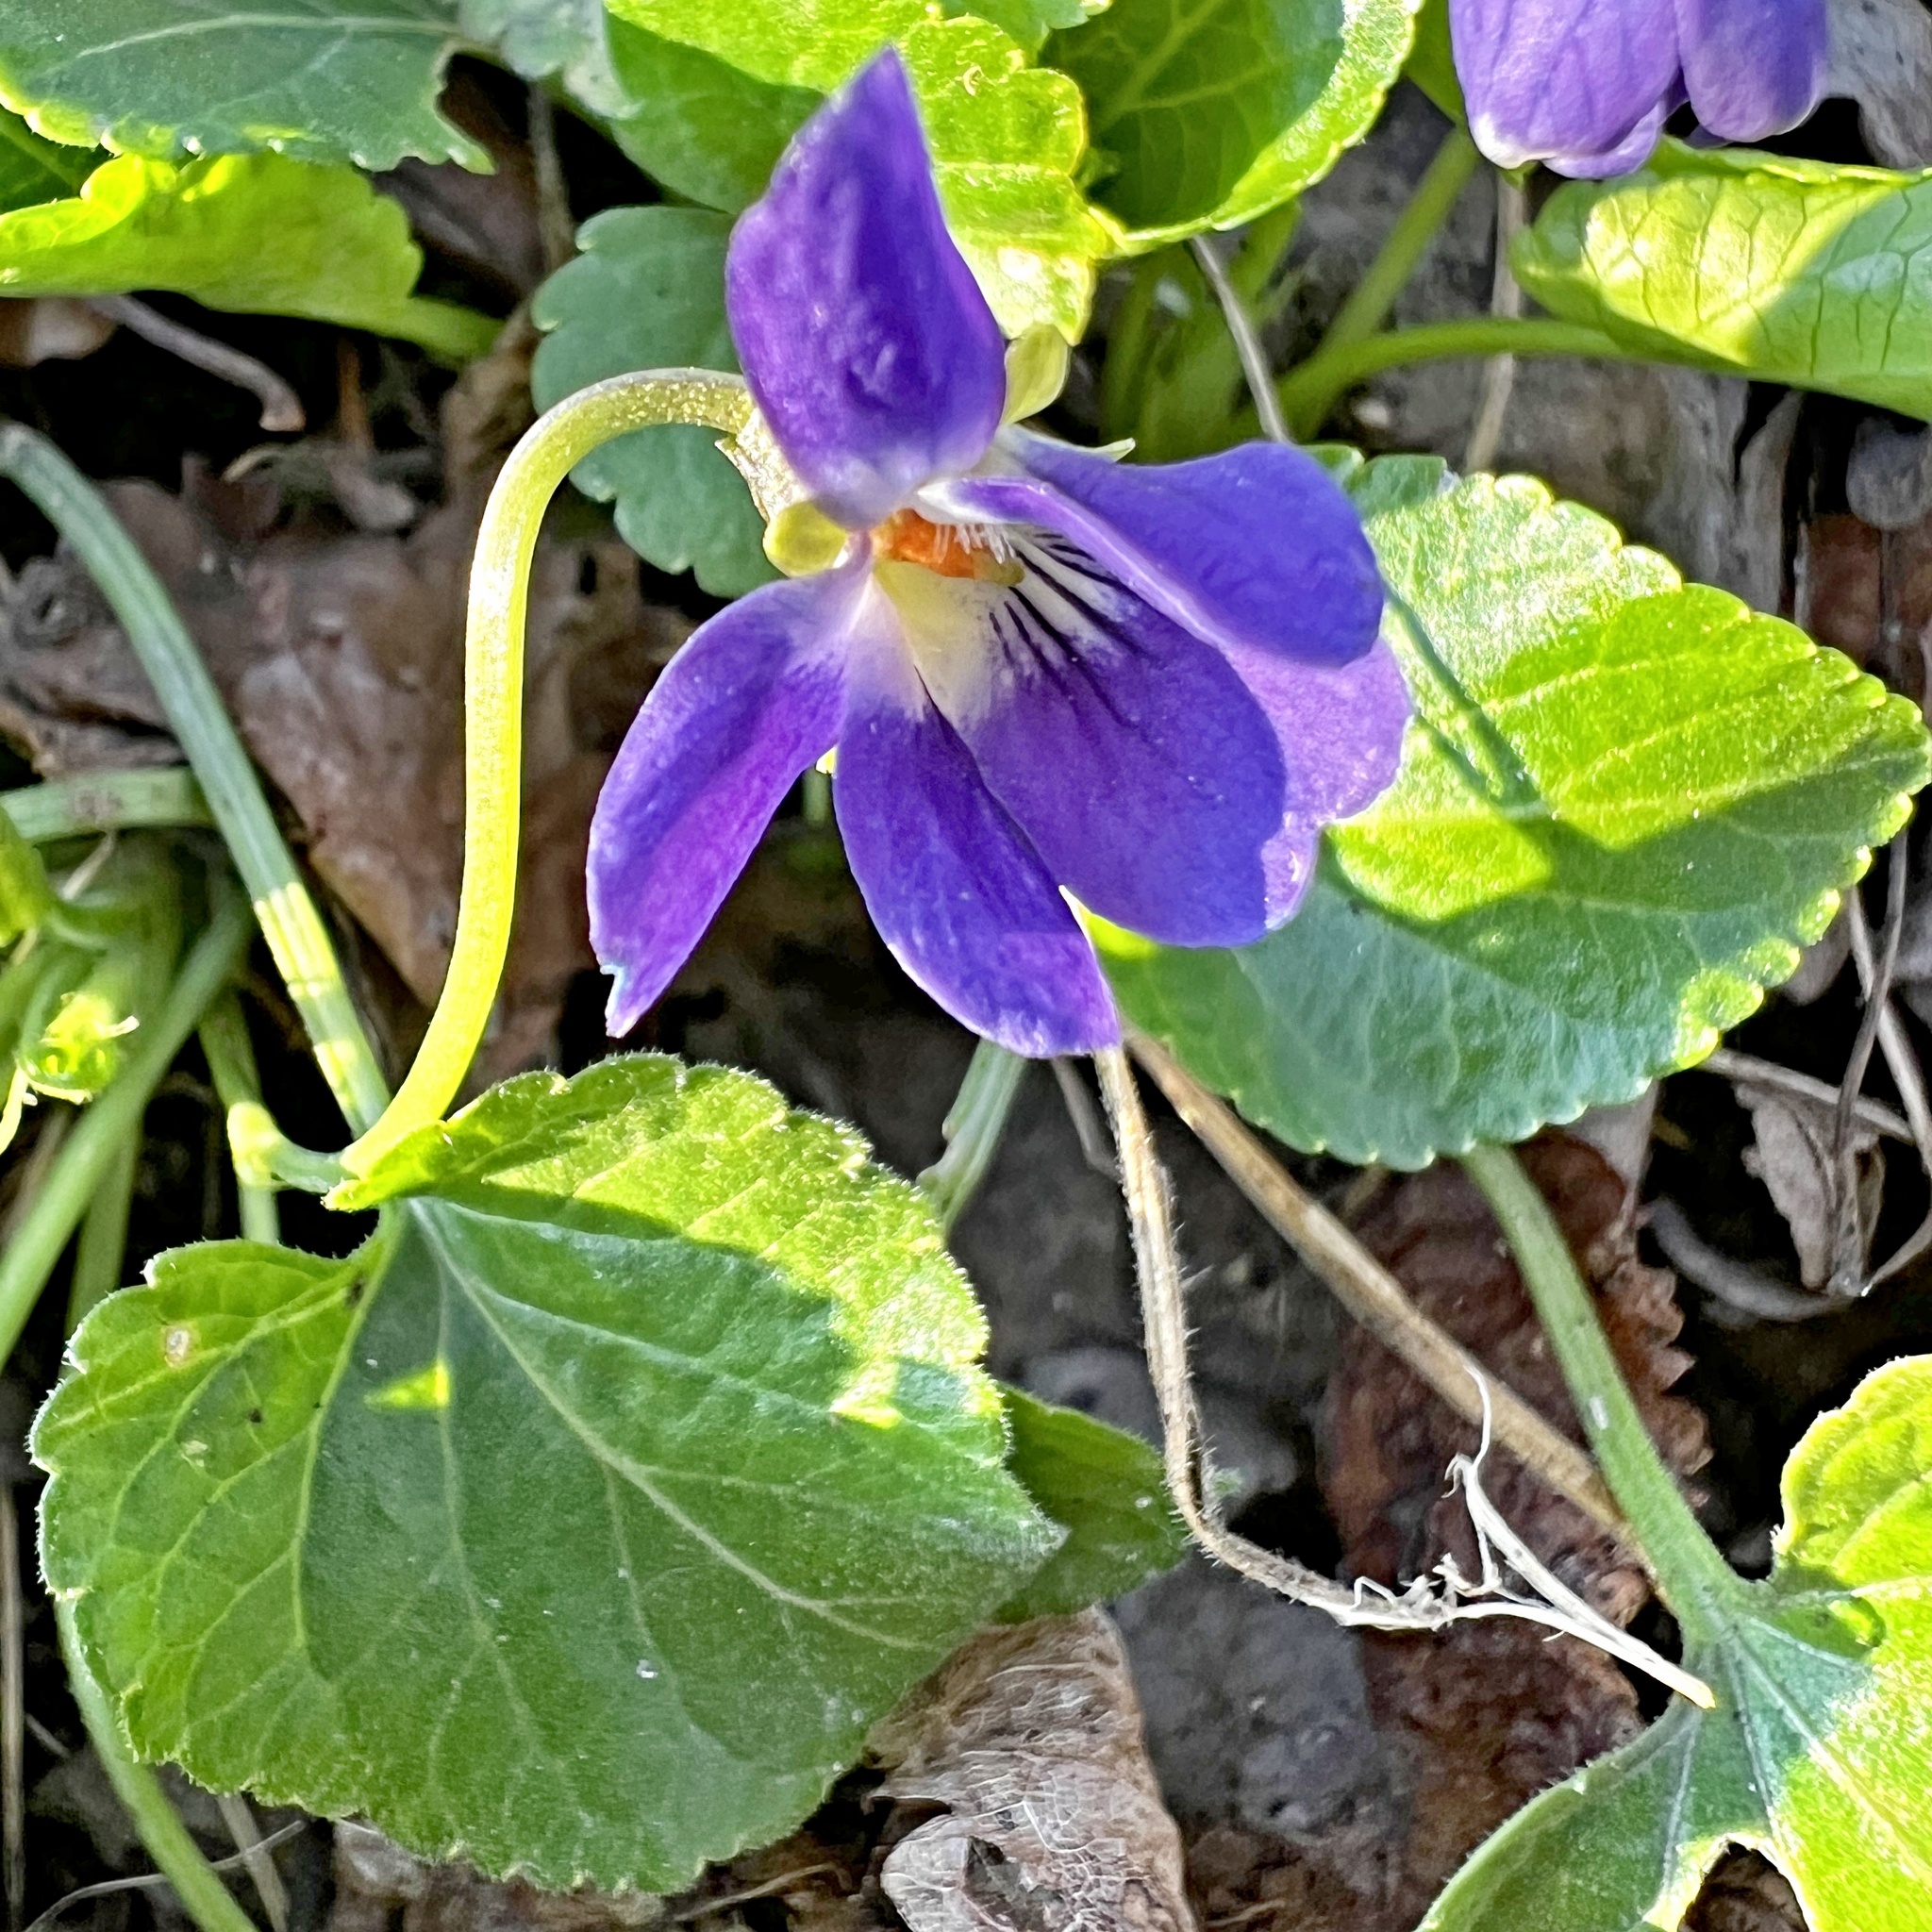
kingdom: Plantae
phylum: Tracheophyta
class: Magnoliopsida
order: Malpighiales
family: Violaceae
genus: Viola
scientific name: Viola odorata
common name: Sweet violet
